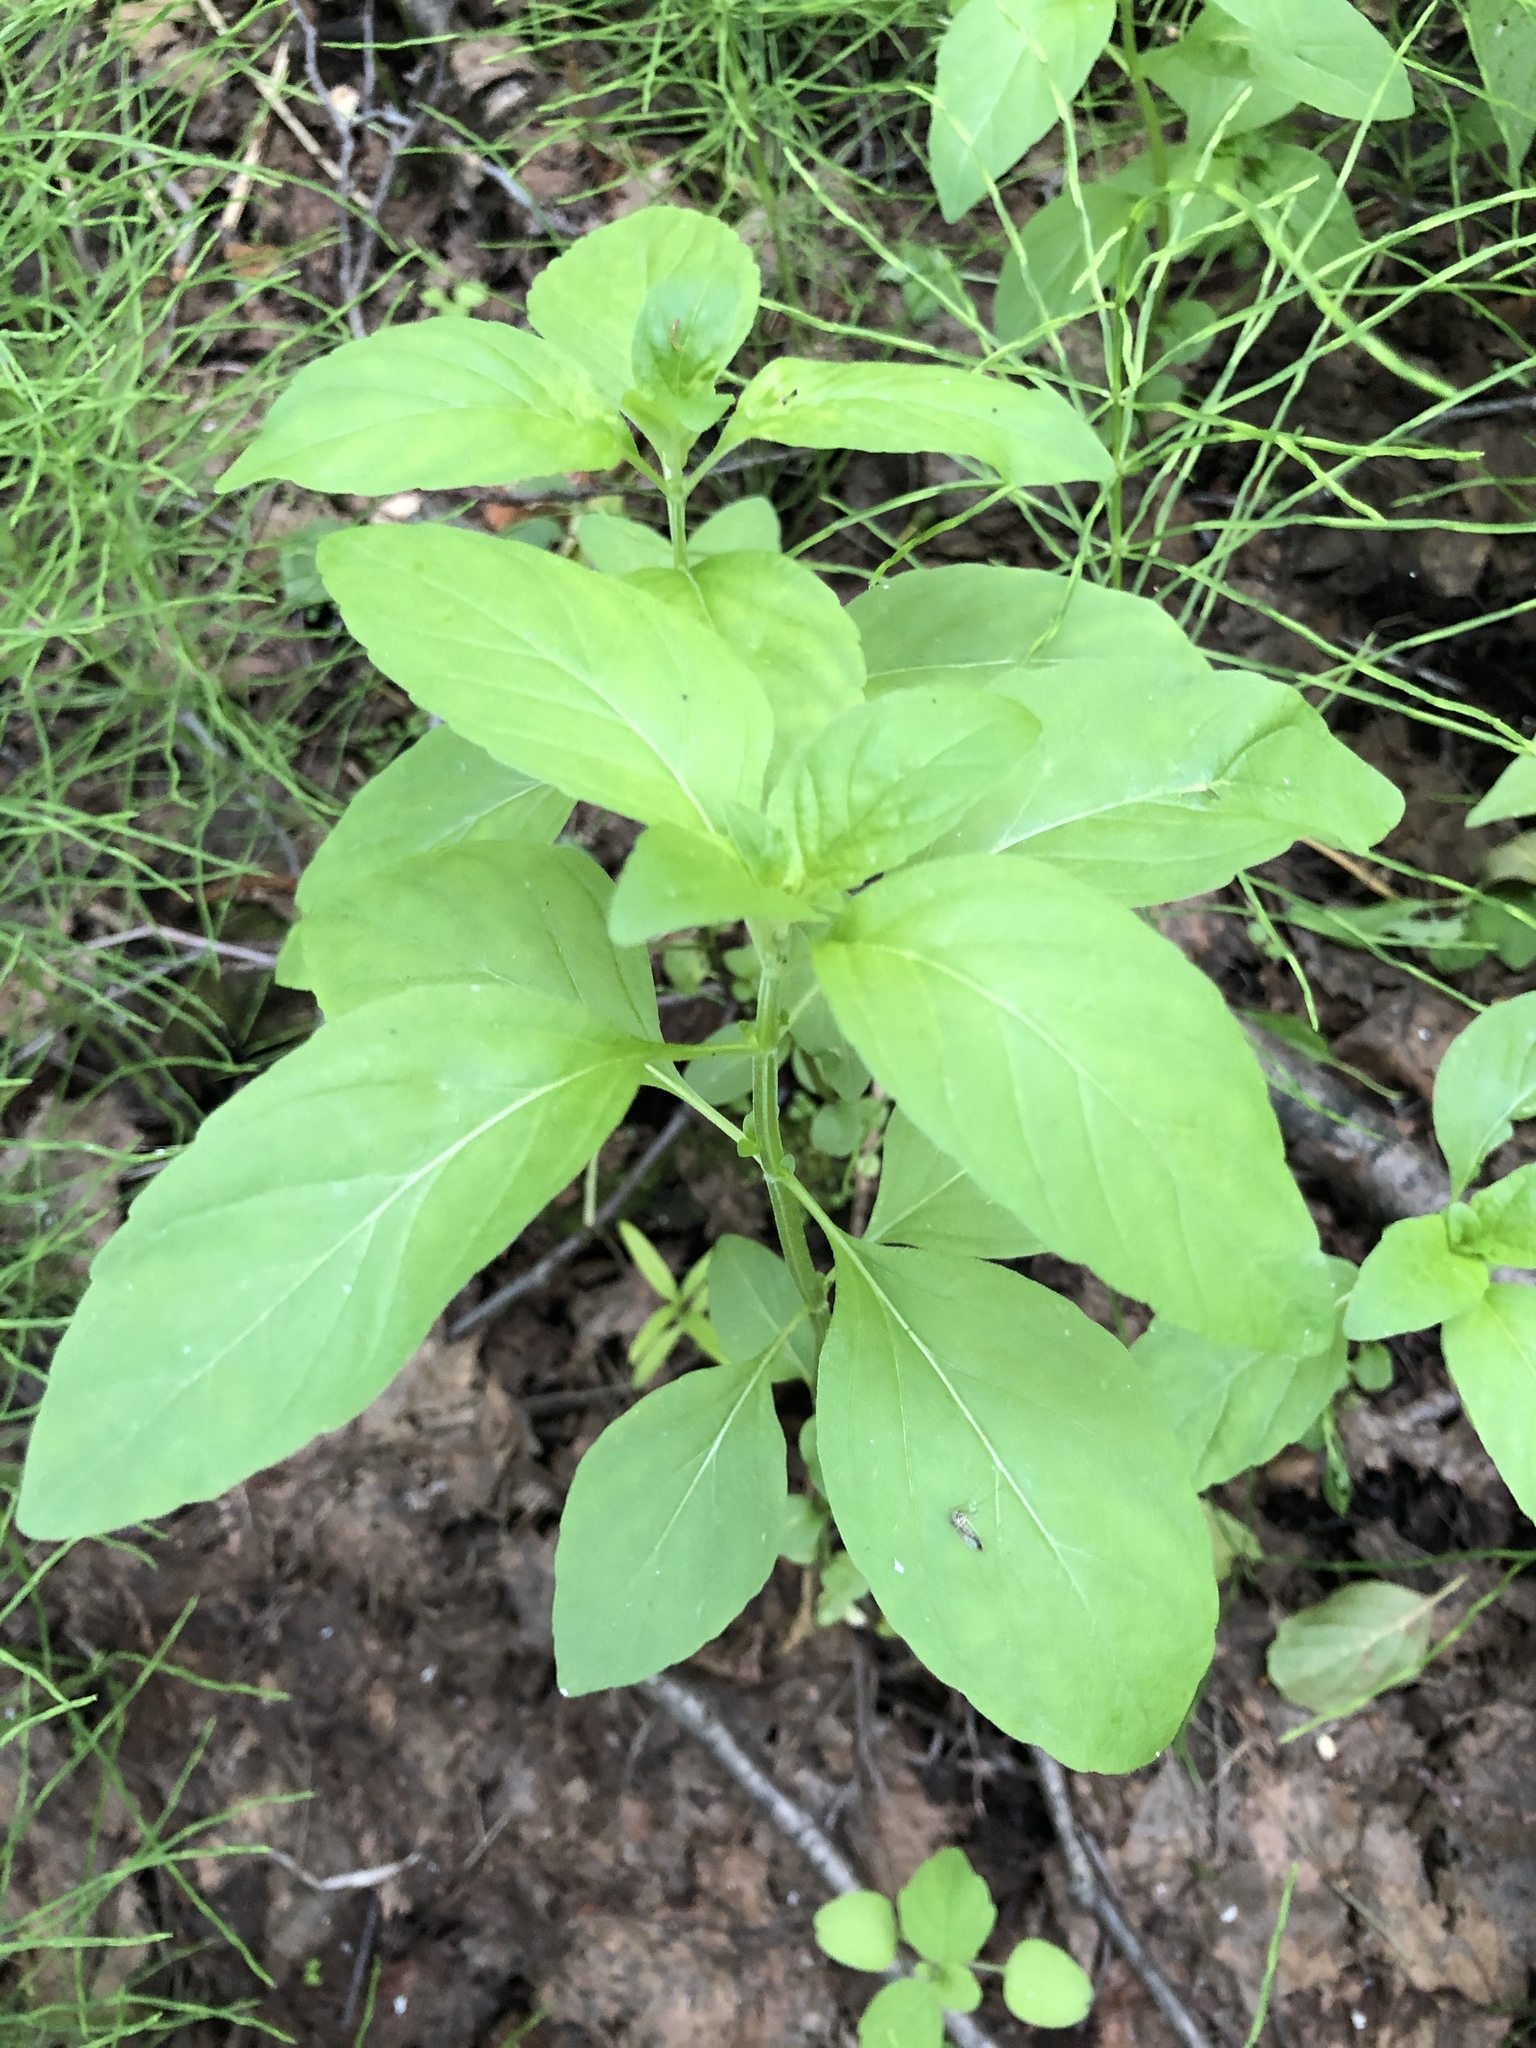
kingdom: Plantae
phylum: Tracheophyta
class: Magnoliopsida
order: Lamiales
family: Lamiaceae
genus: Mentha
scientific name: Mentha arvensis
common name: Corn mint
